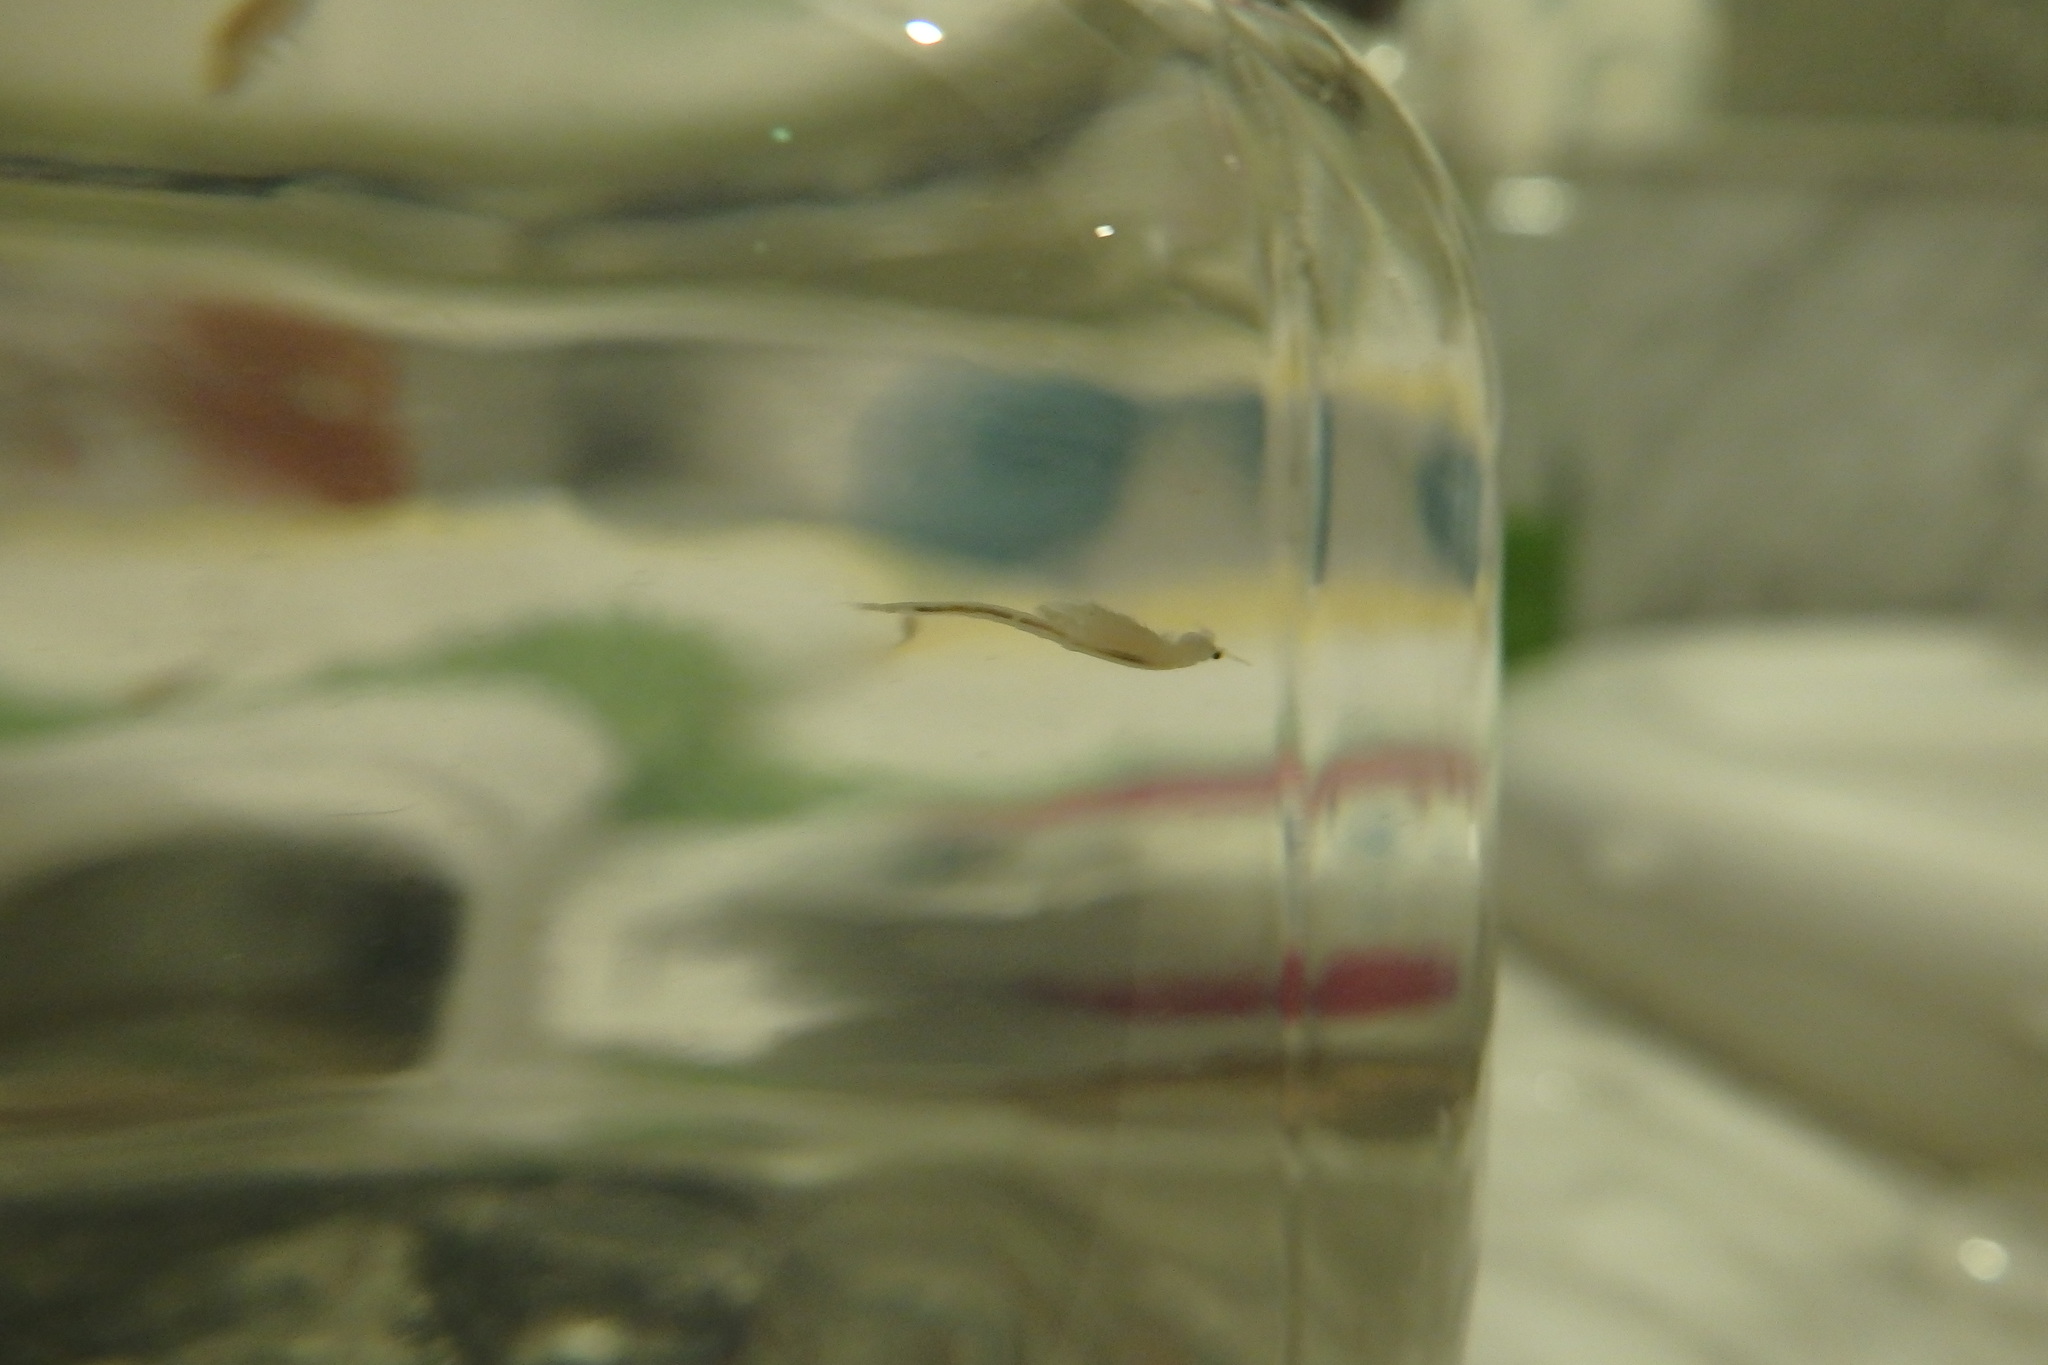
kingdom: Animalia
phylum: Arthropoda
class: Branchiopoda
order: Anostraca
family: Artemiidae
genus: Artemia
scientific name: Artemia urmiana
